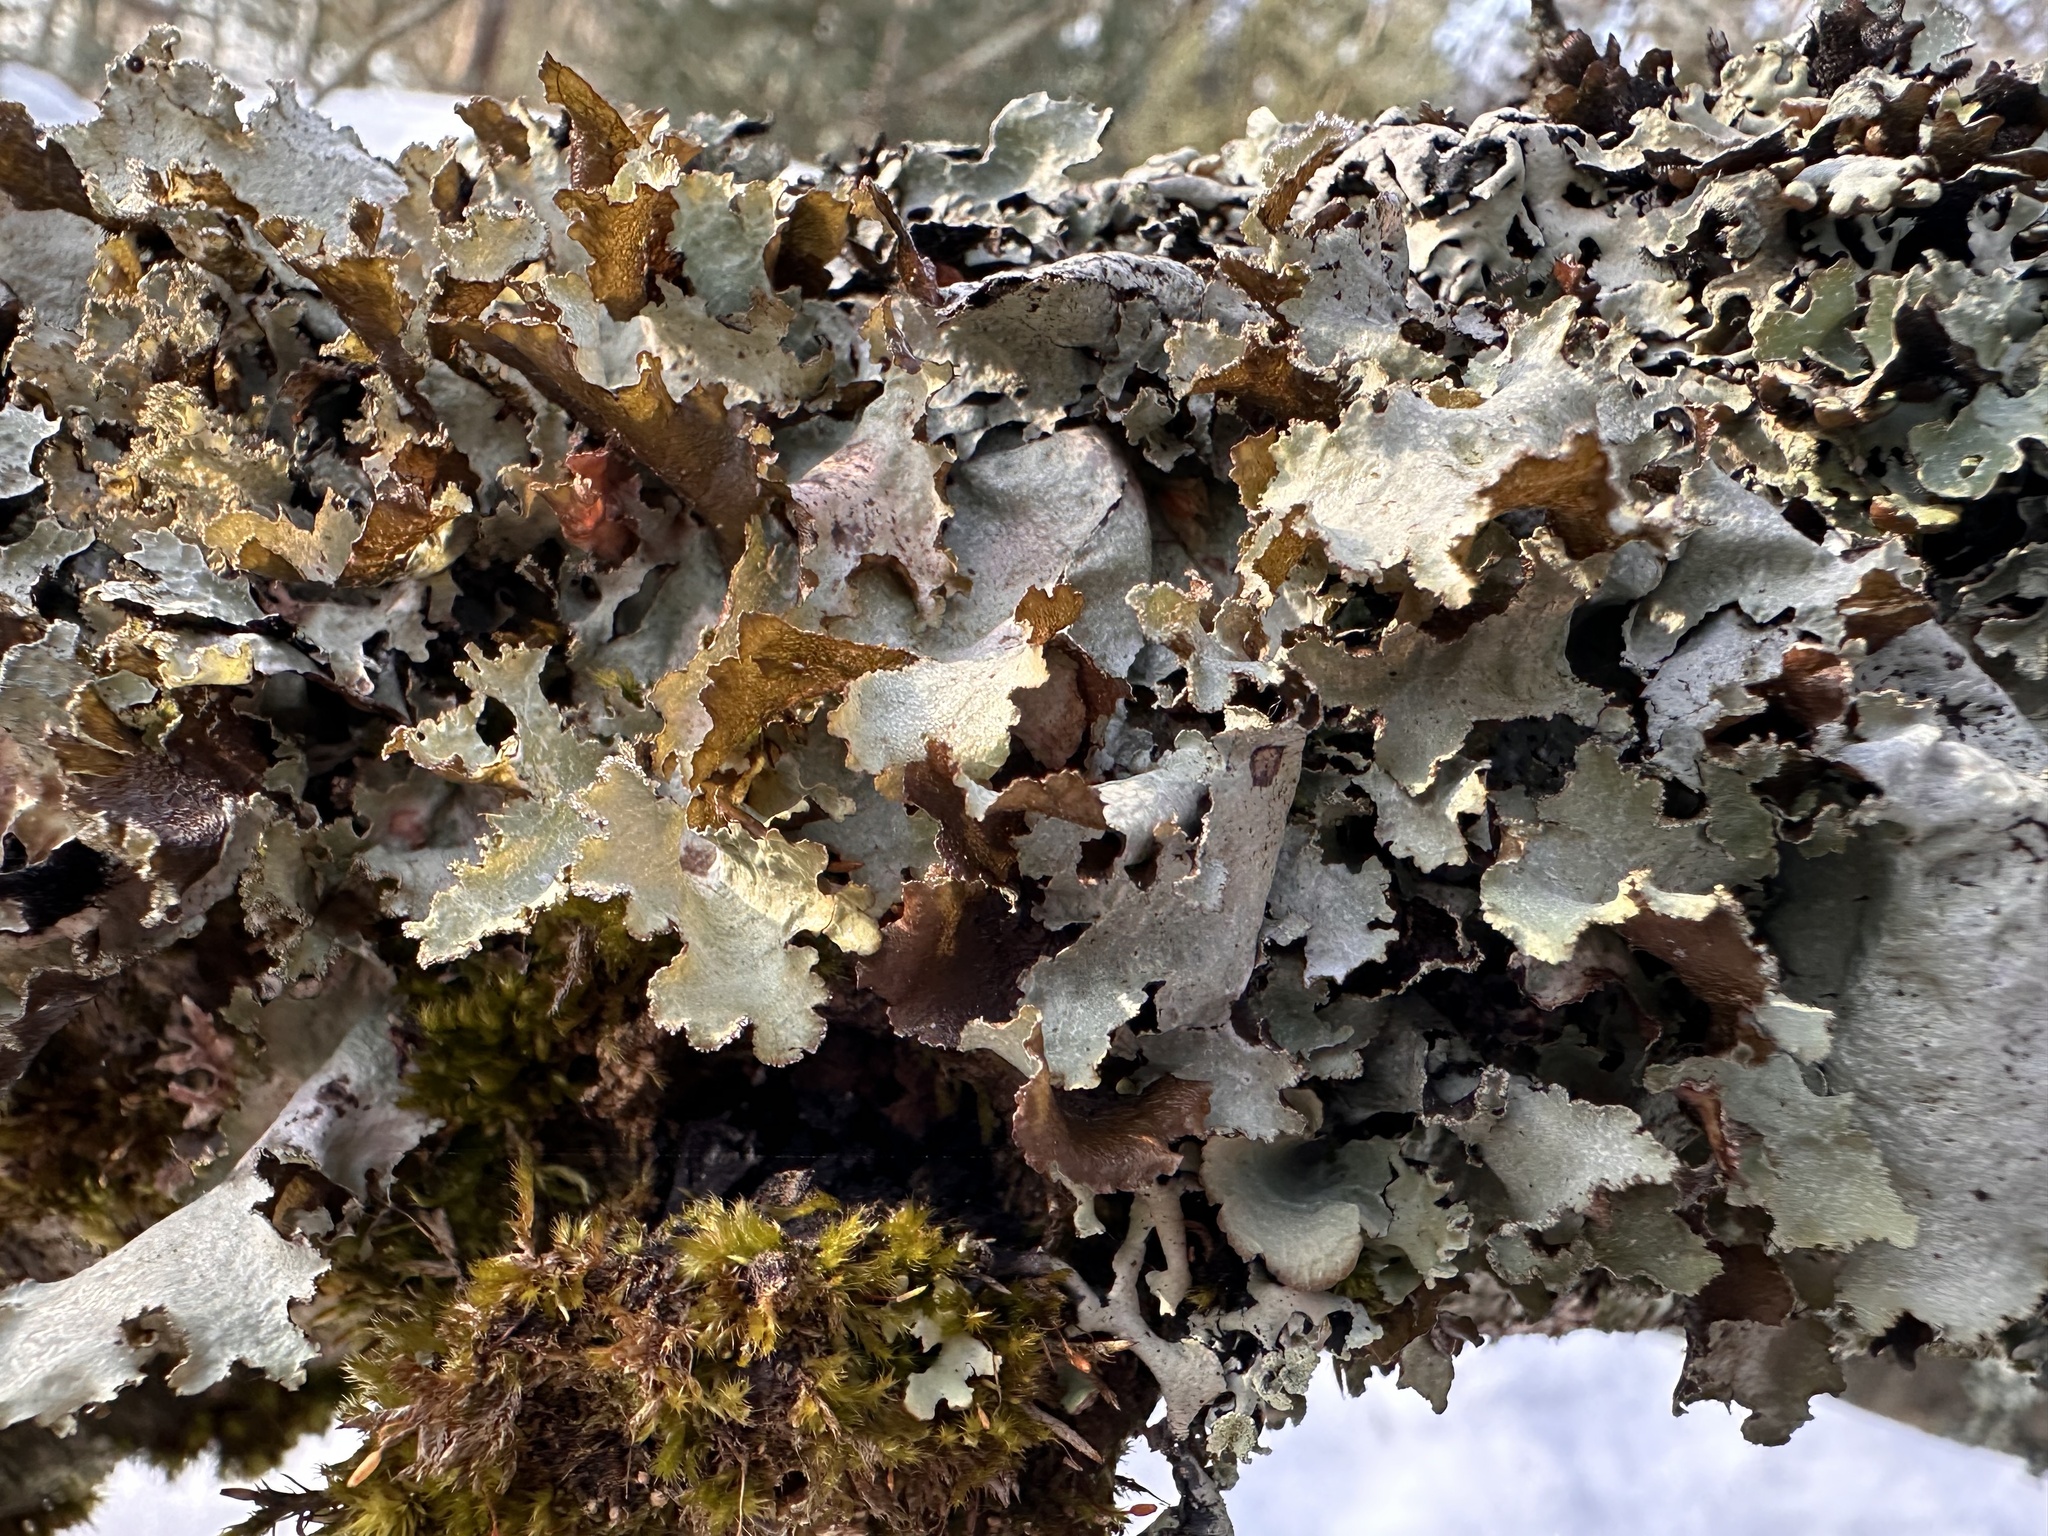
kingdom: Fungi
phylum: Ascomycota
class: Lecanoromycetes
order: Lecanorales
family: Parmeliaceae
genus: Platismatia
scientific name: Platismatia glauca
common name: Varied rag lichen
